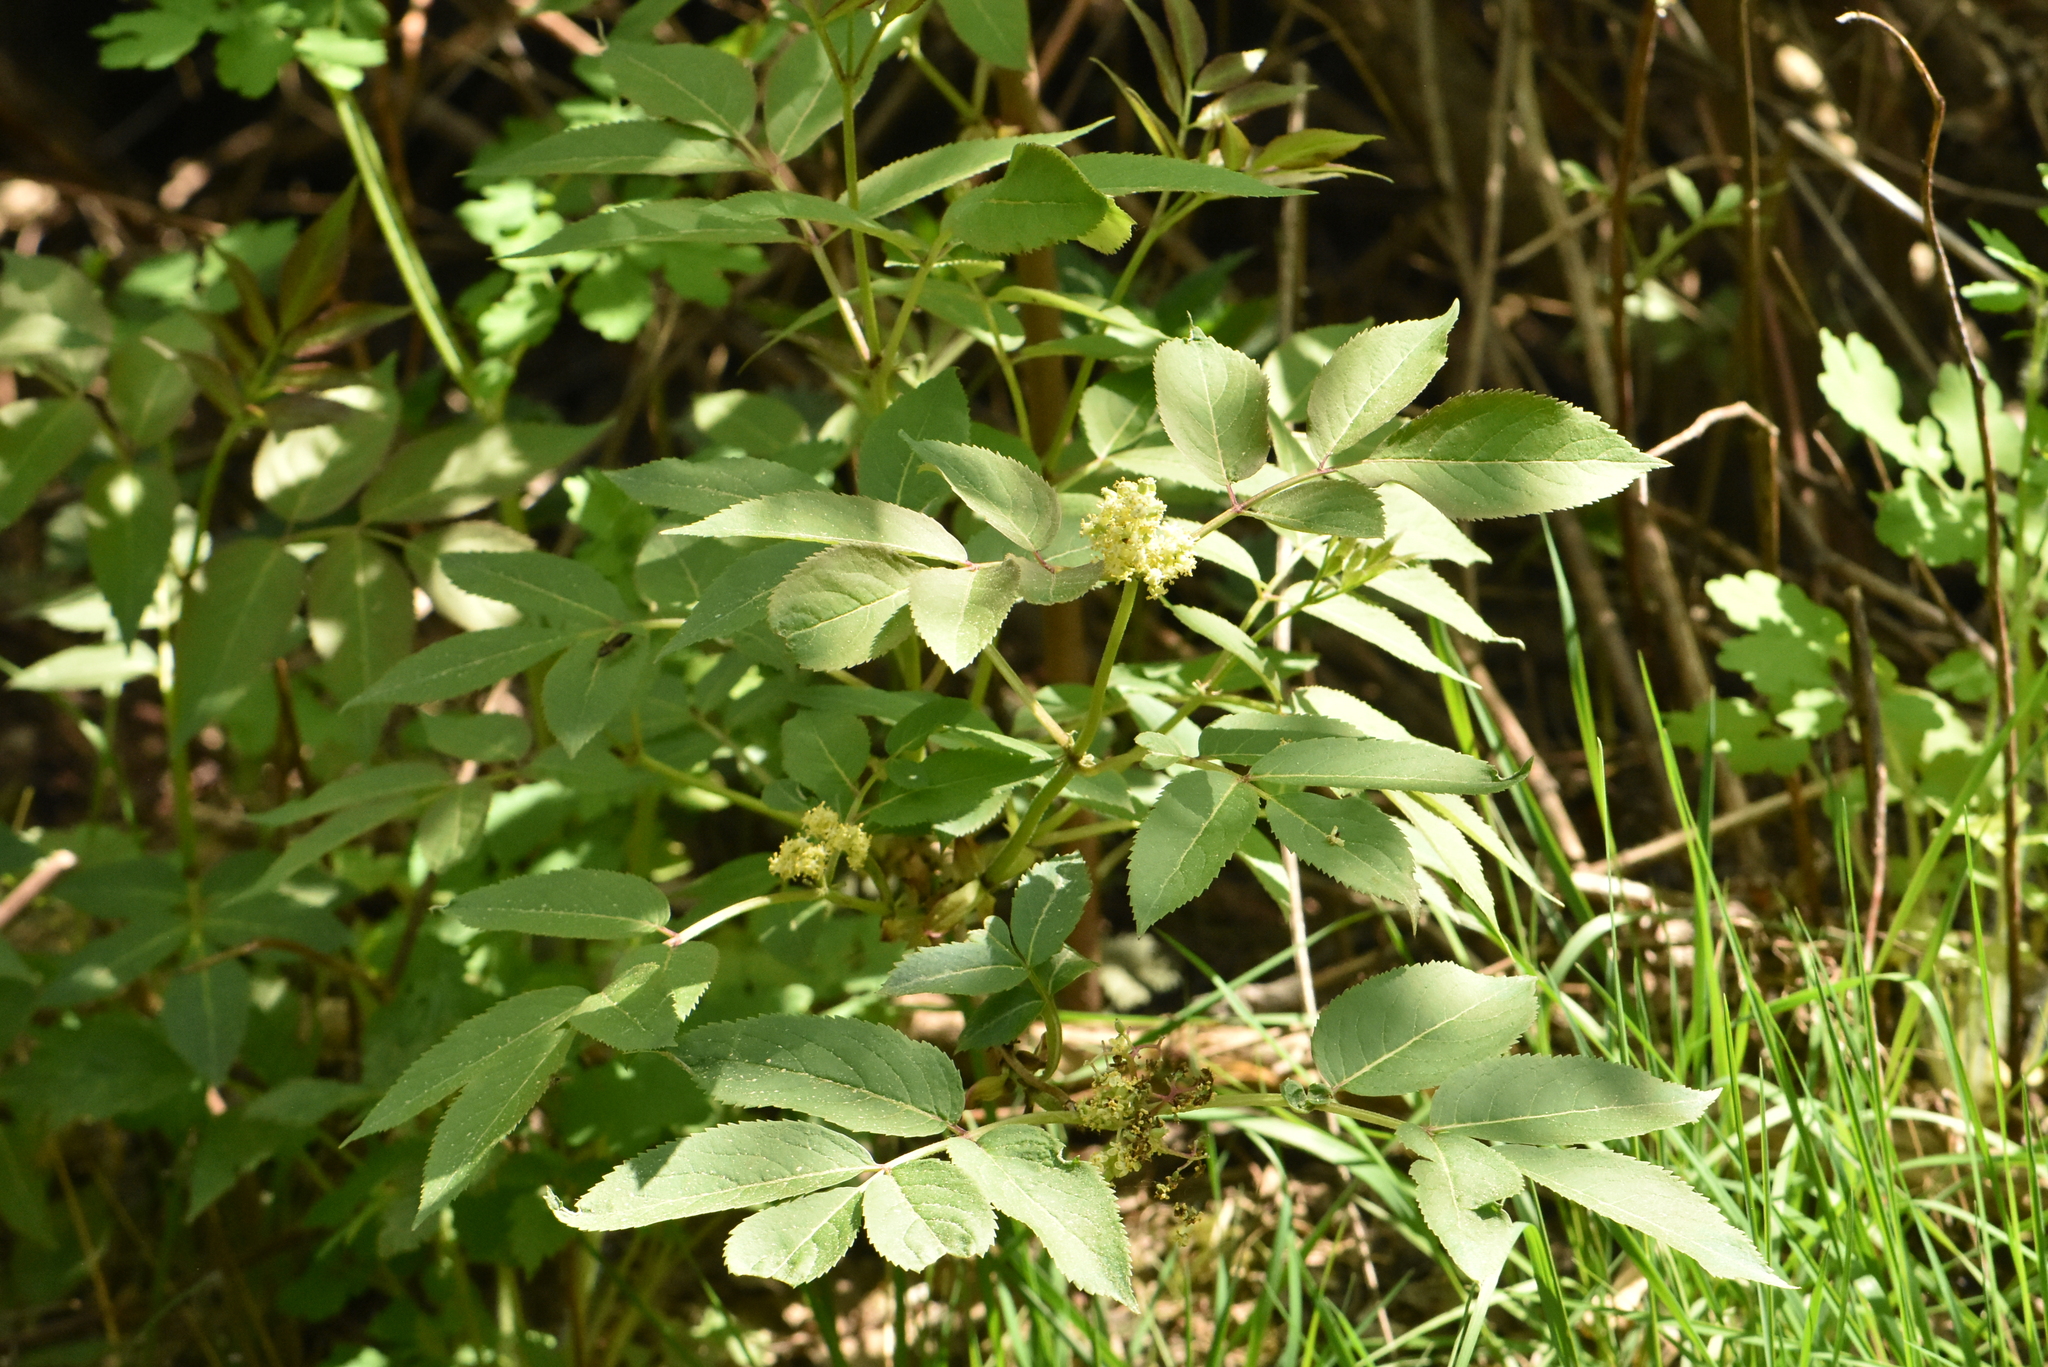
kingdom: Plantae
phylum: Tracheophyta
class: Magnoliopsida
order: Dipsacales
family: Viburnaceae
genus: Sambucus
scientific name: Sambucus racemosa
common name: Red-berried elder
